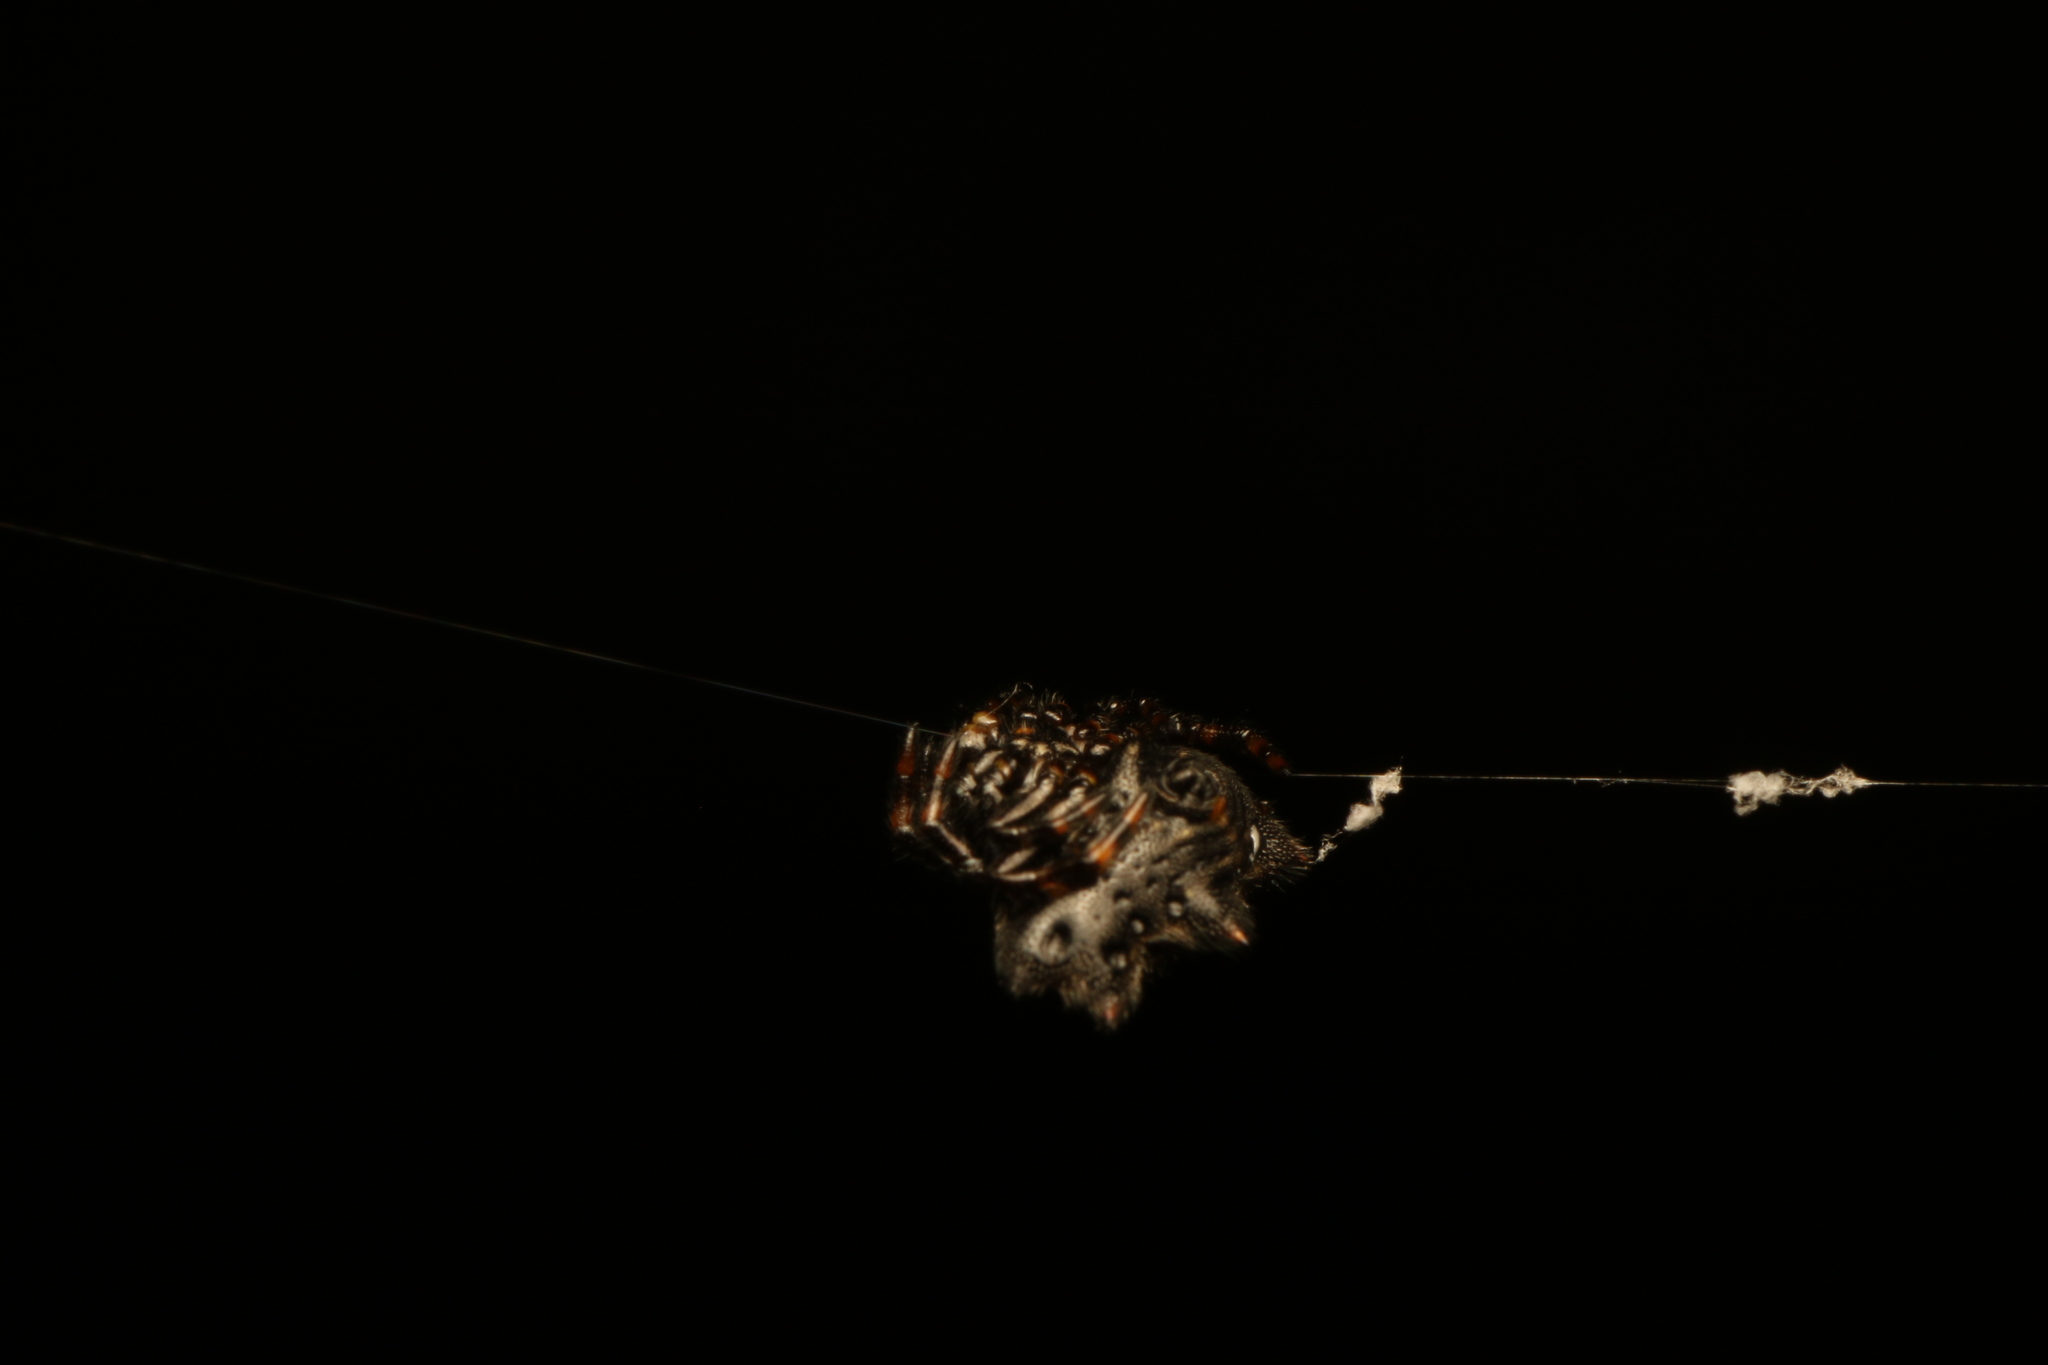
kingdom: Animalia
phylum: Arthropoda
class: Arachnida
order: Araneae
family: Araneidae
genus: Gasteracantha
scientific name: Gasteracantha cancriformis
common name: Orb weavers
